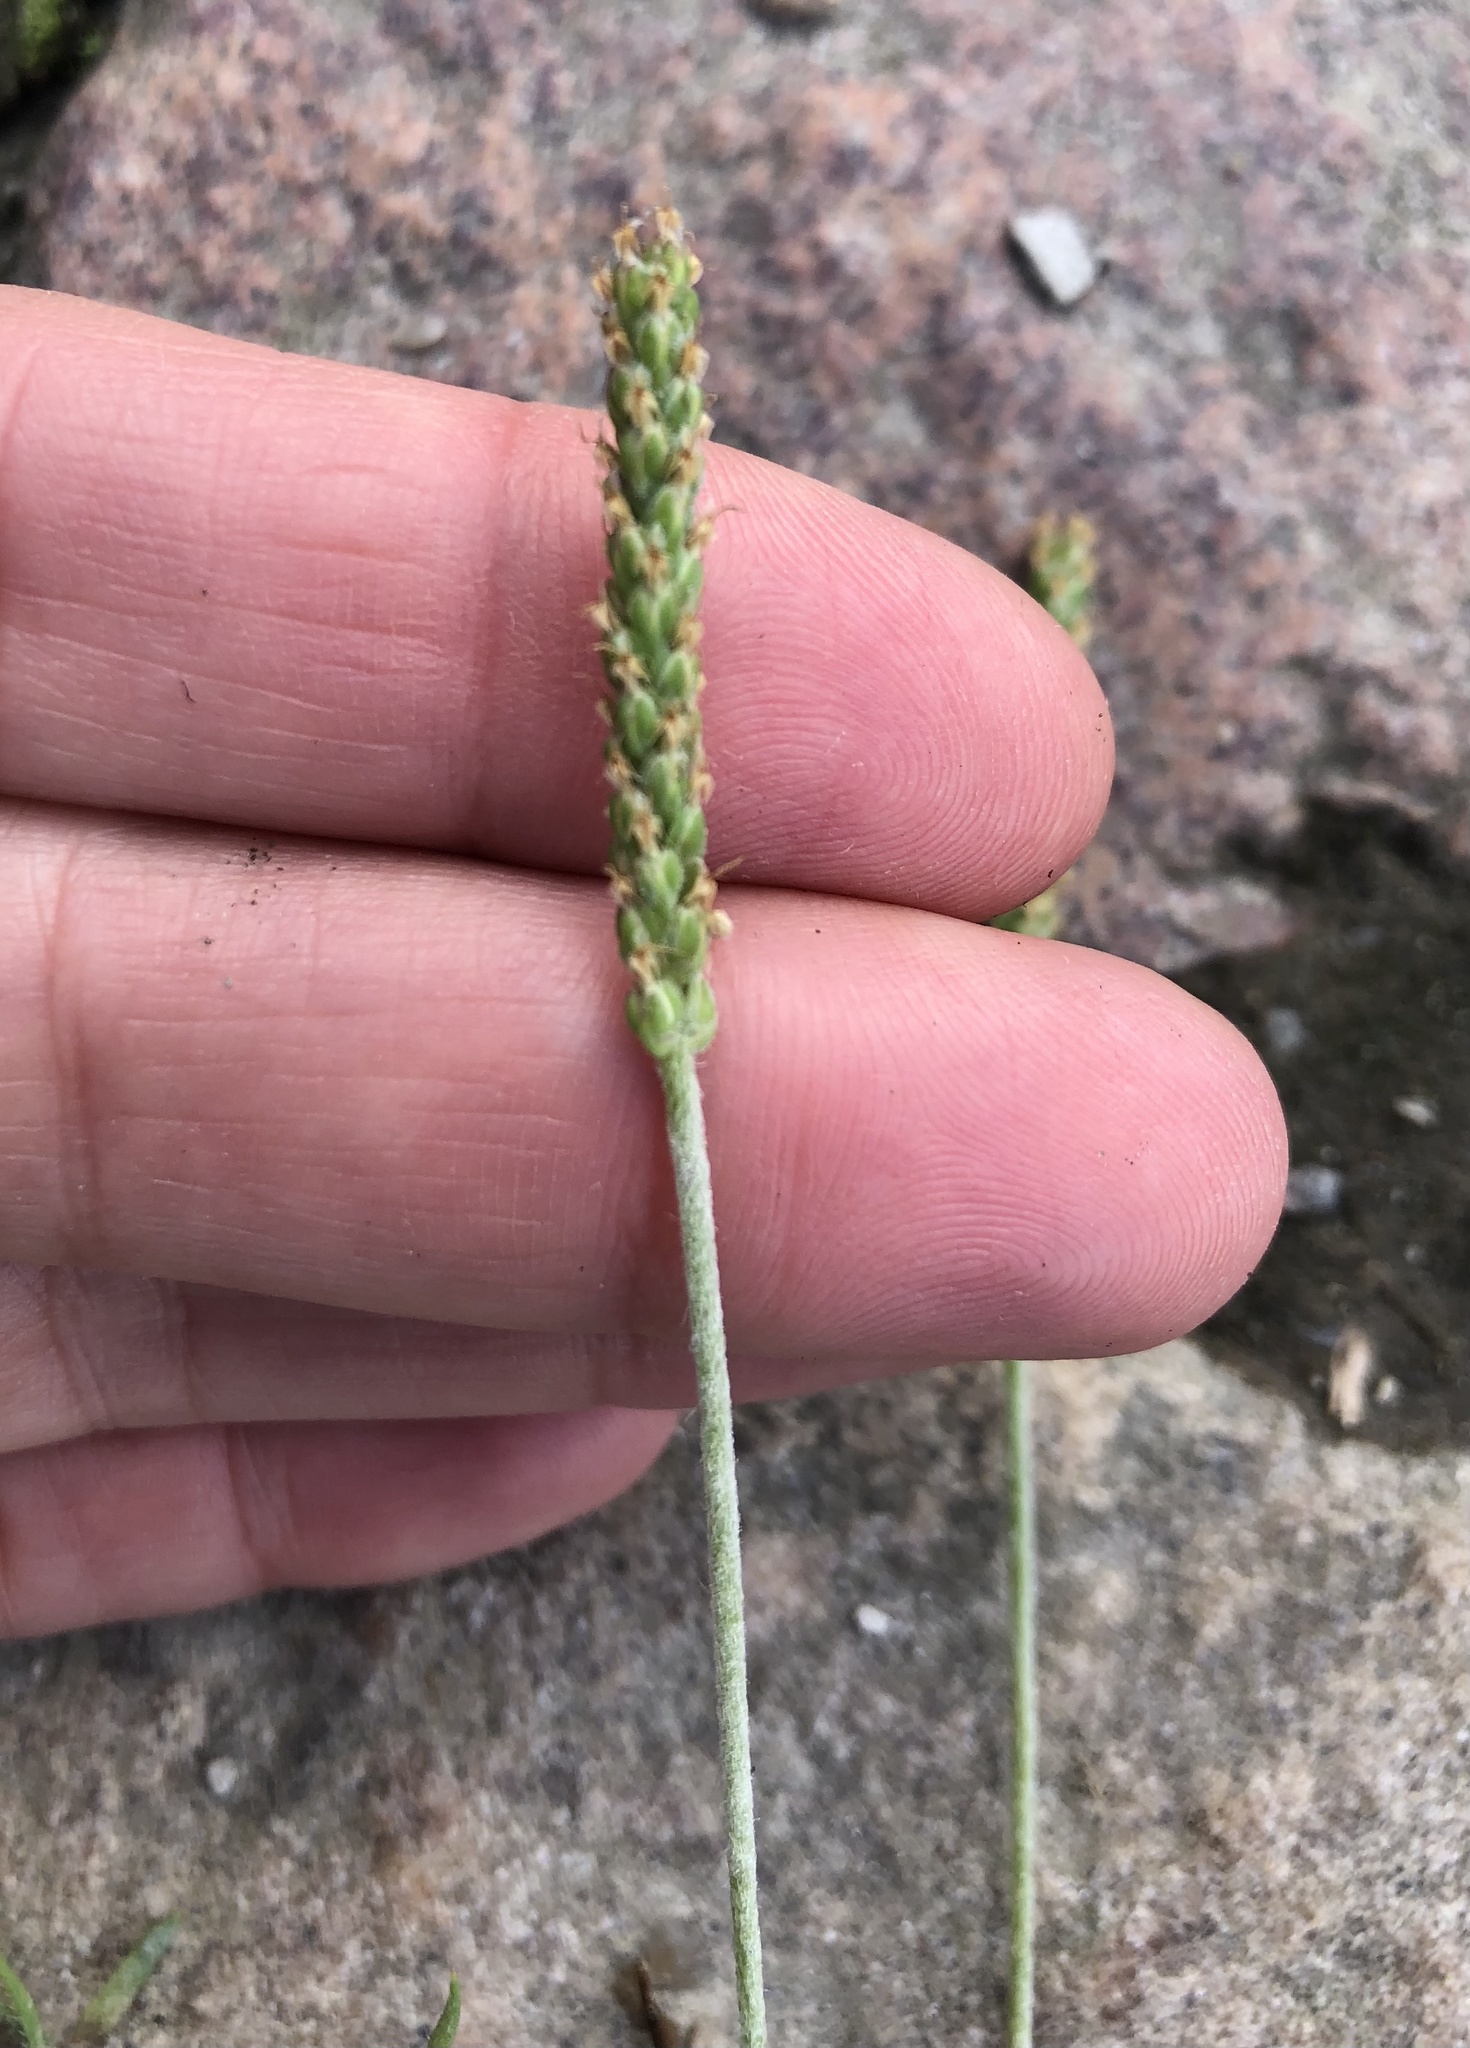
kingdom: Plantae
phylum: Tracheophyta
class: Magnoliopsida
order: Lamiales
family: Plantaginaceae
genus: Plantago
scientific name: Plantago coronopus
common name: Buck's-horn plantain
